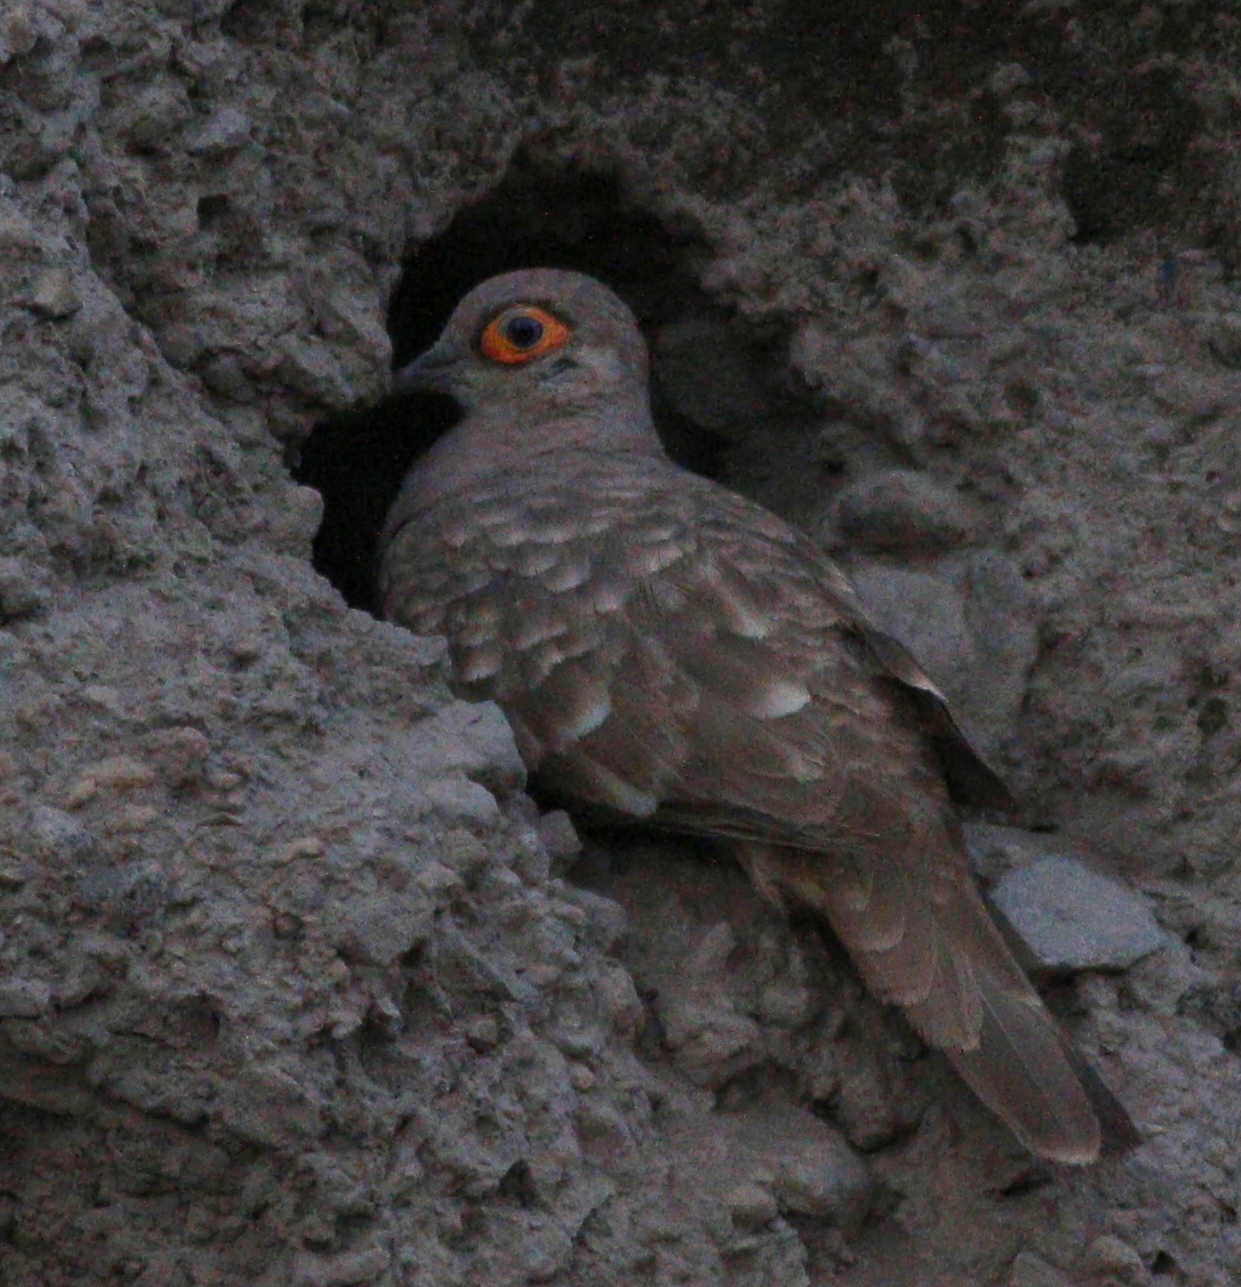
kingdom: Animalia
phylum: Chordata
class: Aves
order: Columbiformes
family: Columbidae
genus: Metriopelia
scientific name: Metriopelia ceciliae
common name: Bare-faced ground dove
